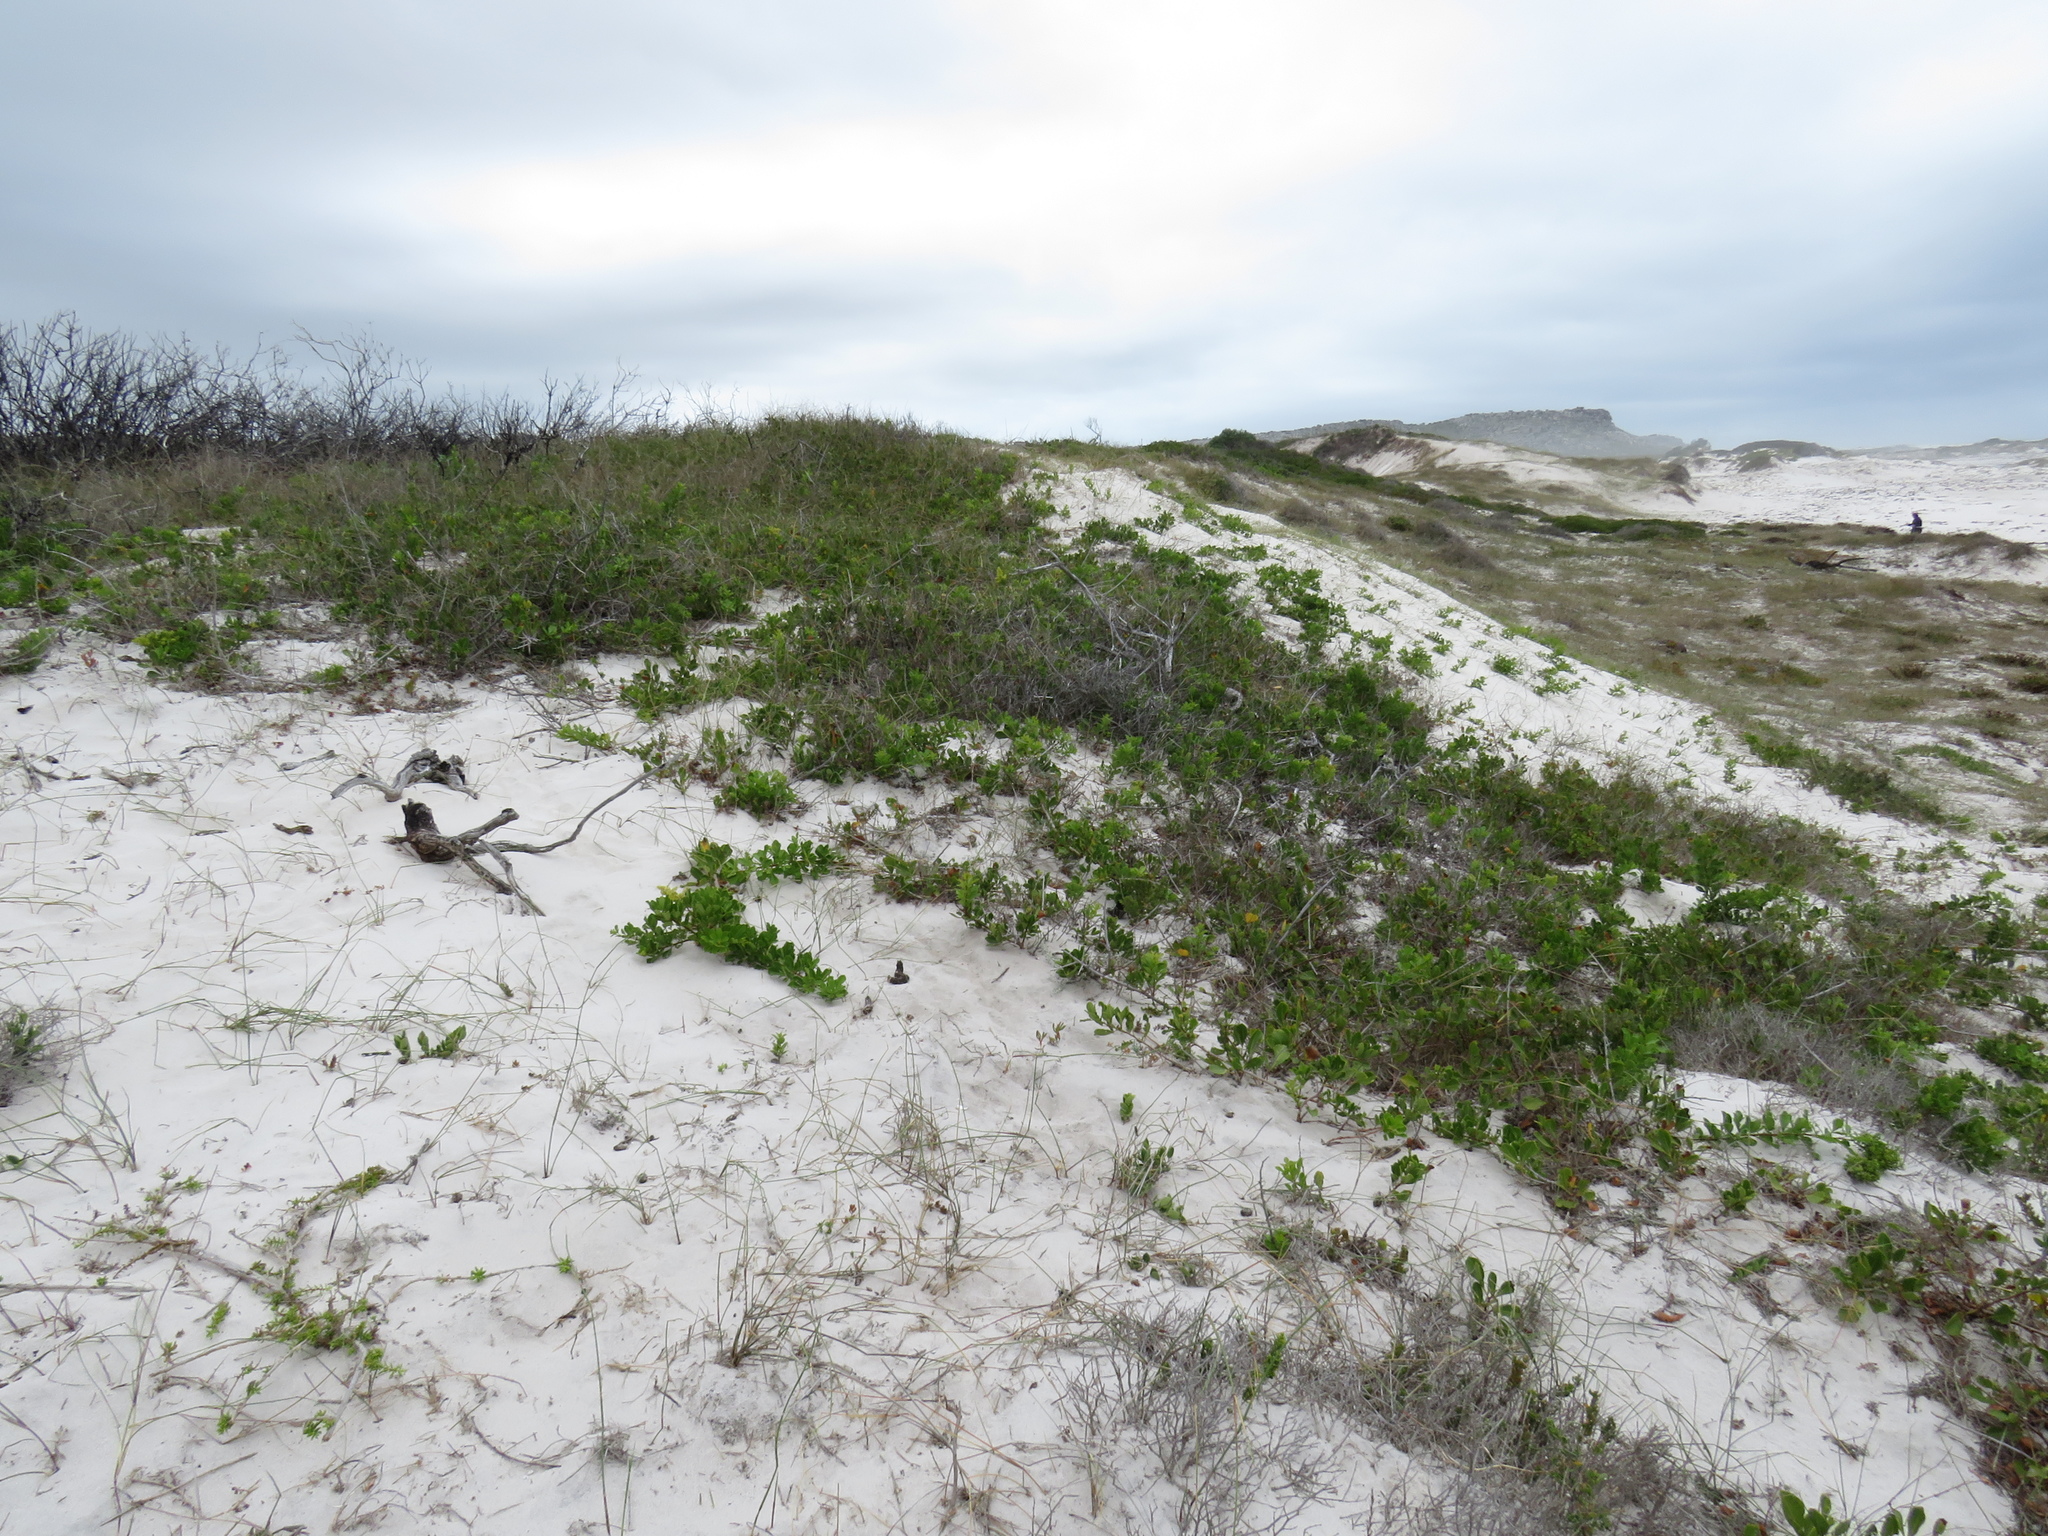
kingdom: Plantae
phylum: Tracheophyta
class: Magnoliopsida
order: Sapindales
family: Anacardiaceae
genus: Searsia
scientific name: Searsia laevigata
